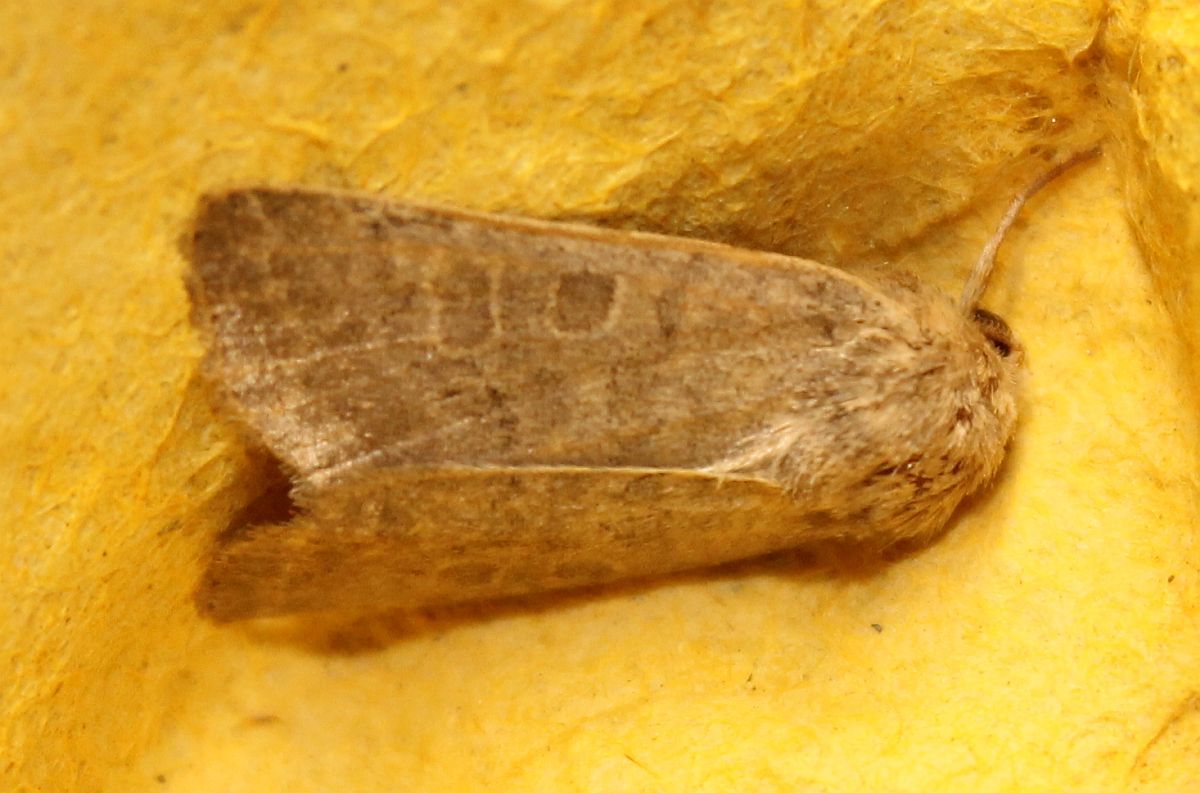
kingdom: Animalia
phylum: Arthropoda
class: Insecta
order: Lepidoptera
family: Noctuidae
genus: Hoplodrina
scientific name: Hoplodrina ambigua
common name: Vine's rustic
